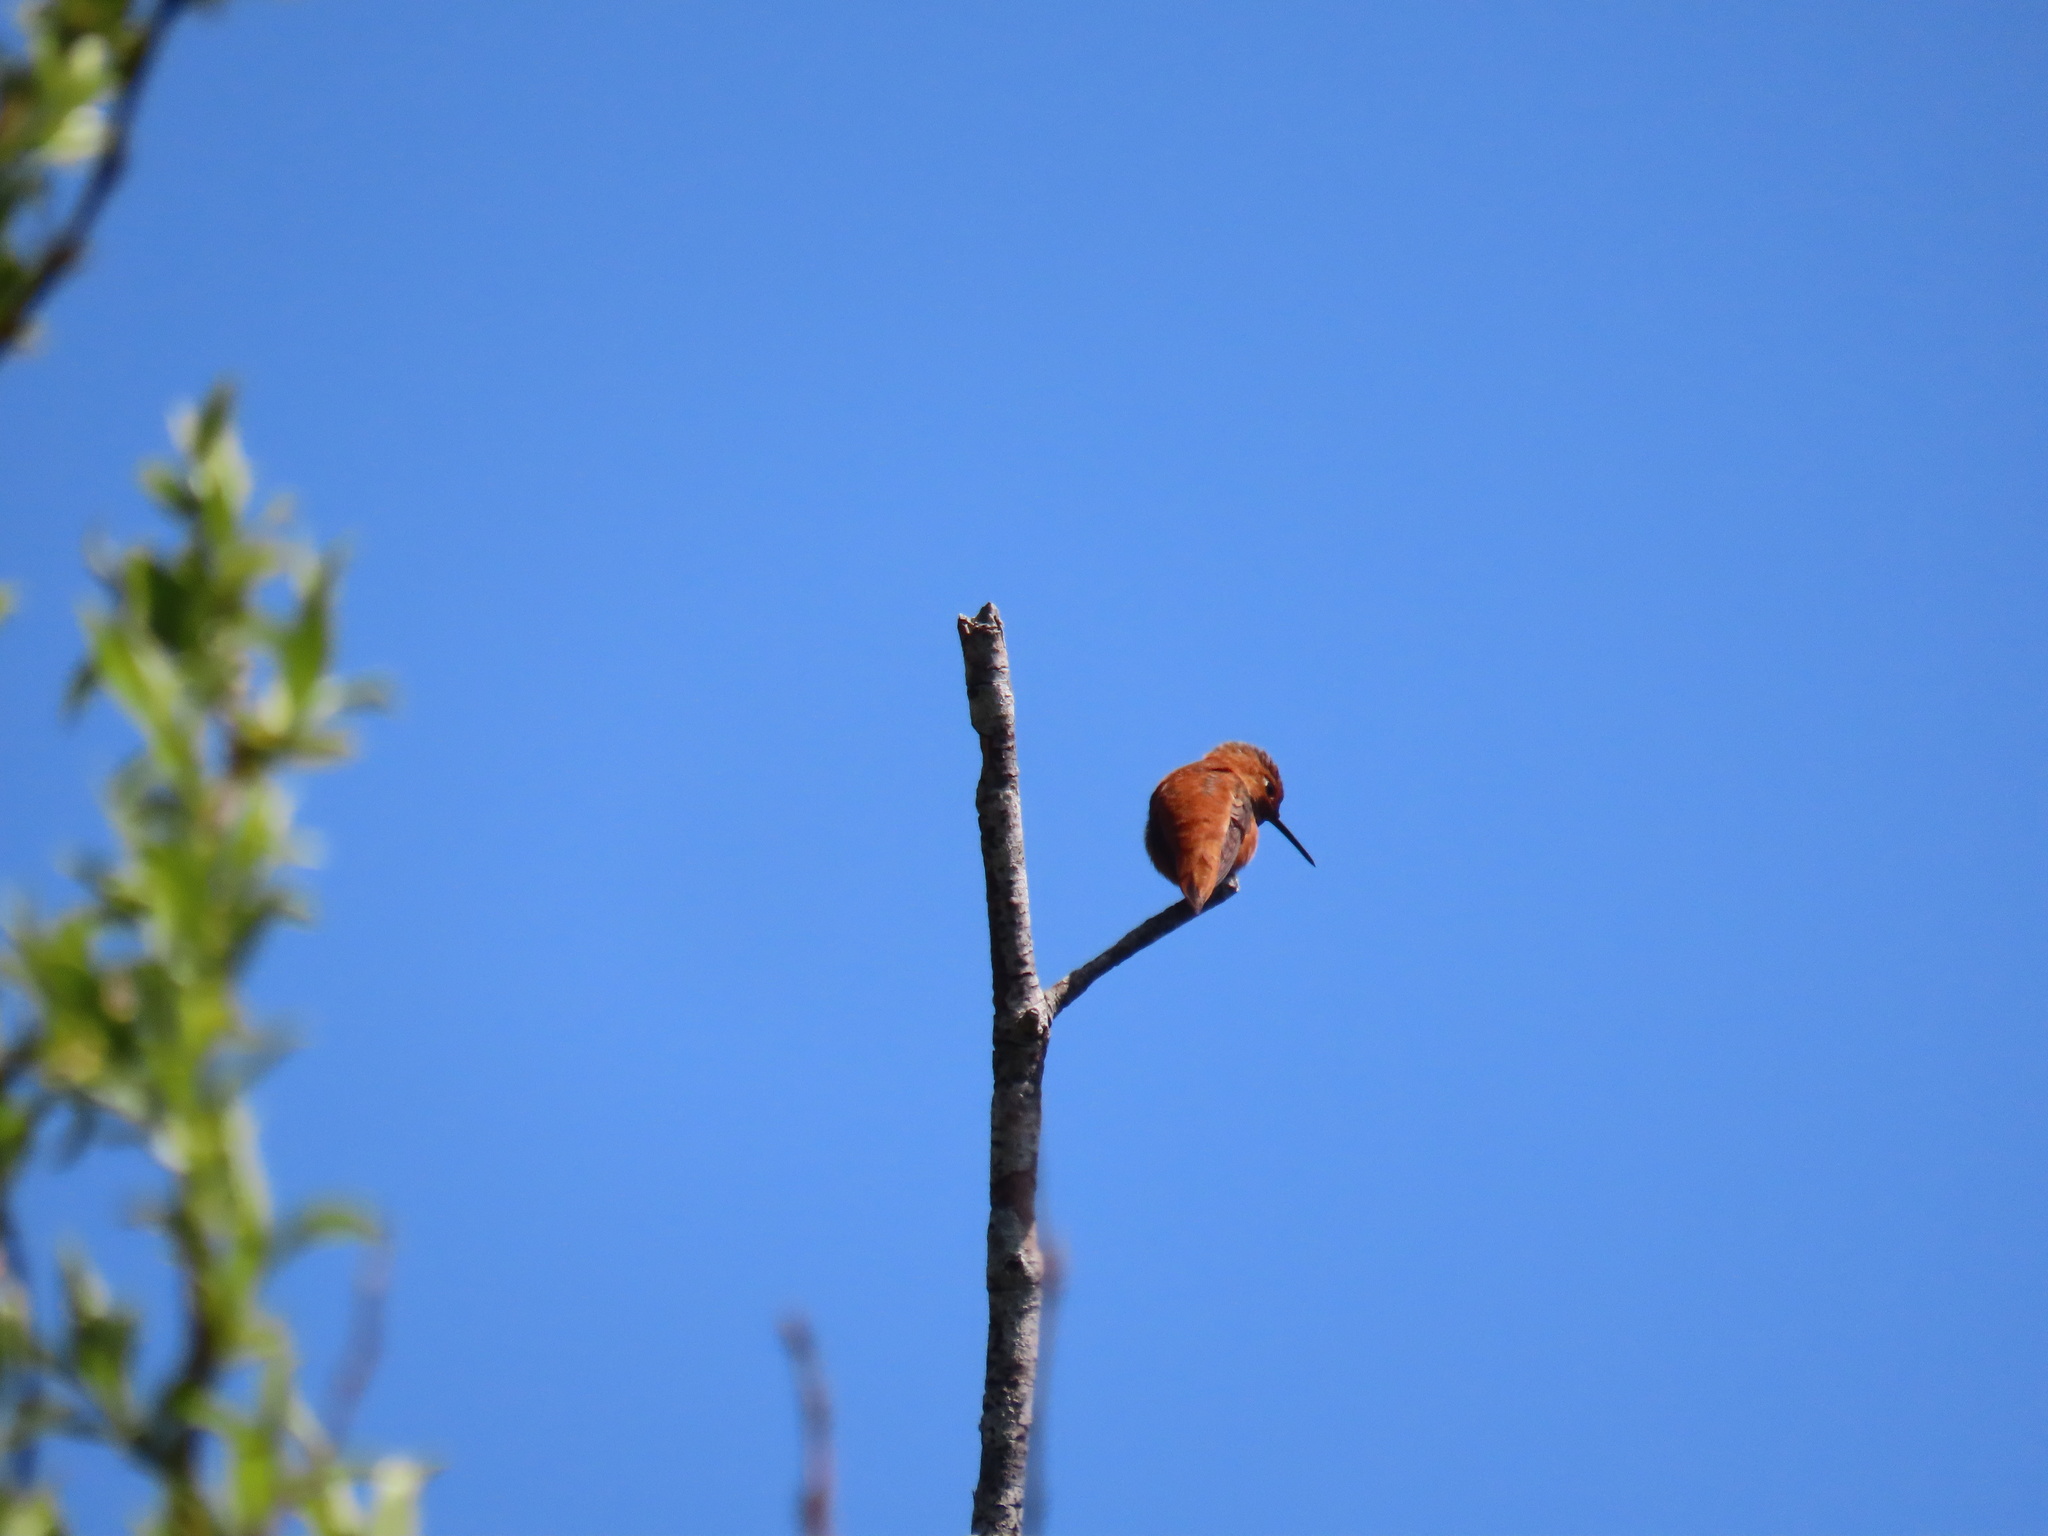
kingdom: Animalia
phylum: Chordata
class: Aves
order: Apodiformes
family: Trochilidae
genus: Selasphorus
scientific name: Selasphorus rufus
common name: Rufous hummingbird
